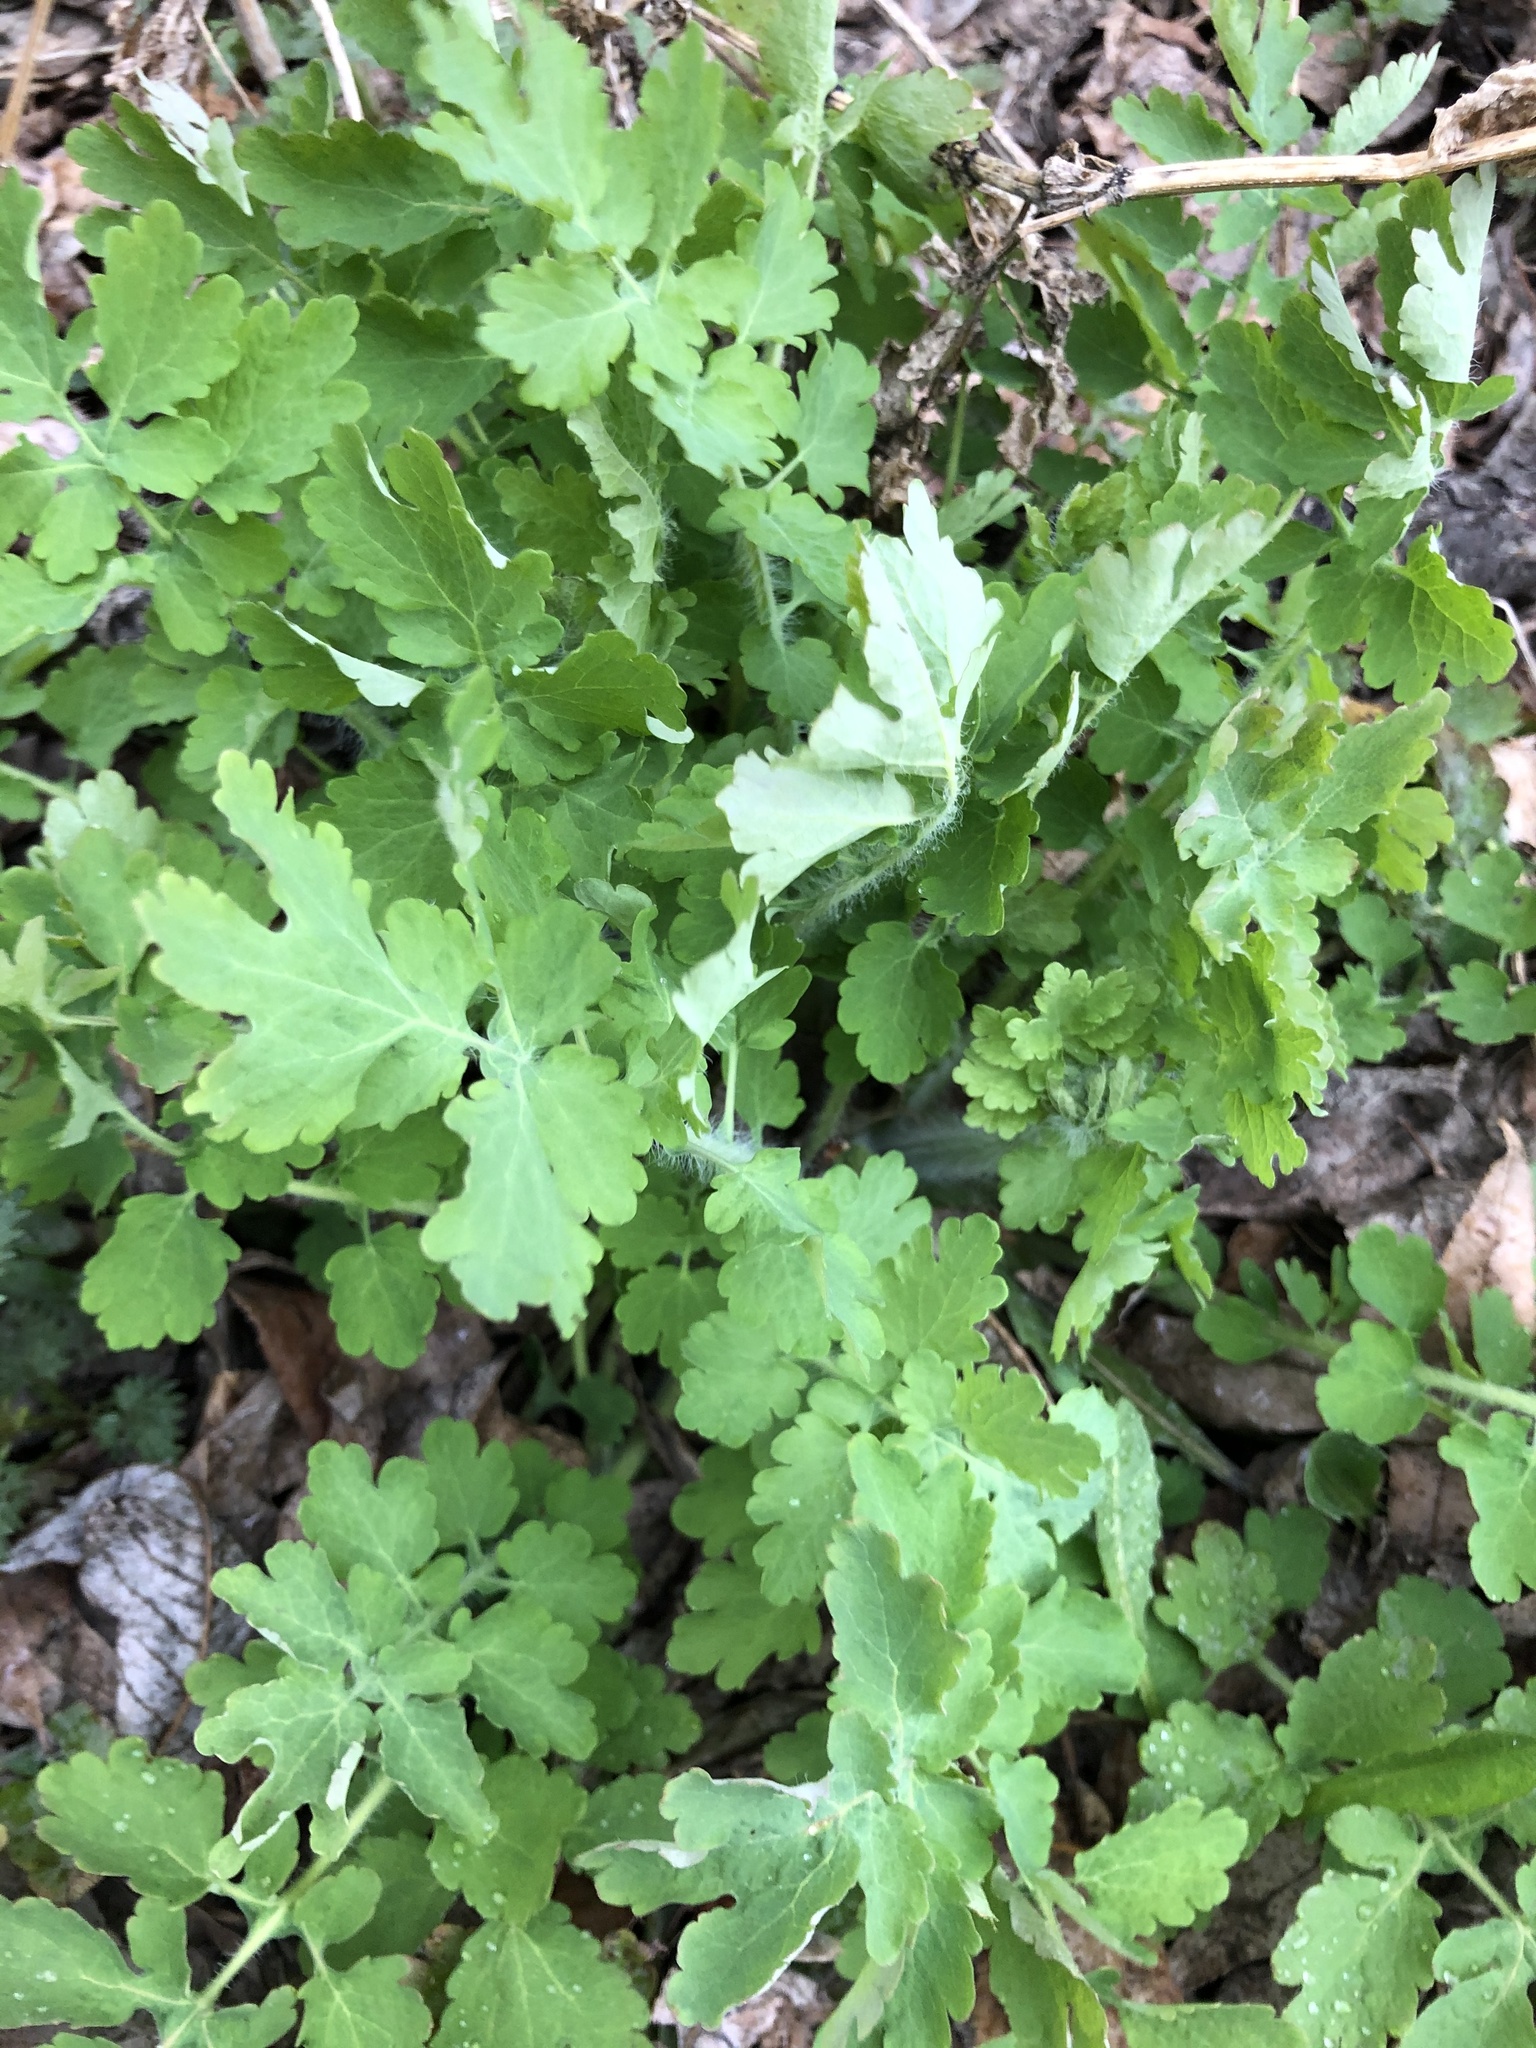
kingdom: Plantae
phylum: Tracheophyta
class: Magnoliopsida
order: Ranunculales
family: Papaveraceae
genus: Chelidonium
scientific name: Chelidonium majus
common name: Greater celandine
